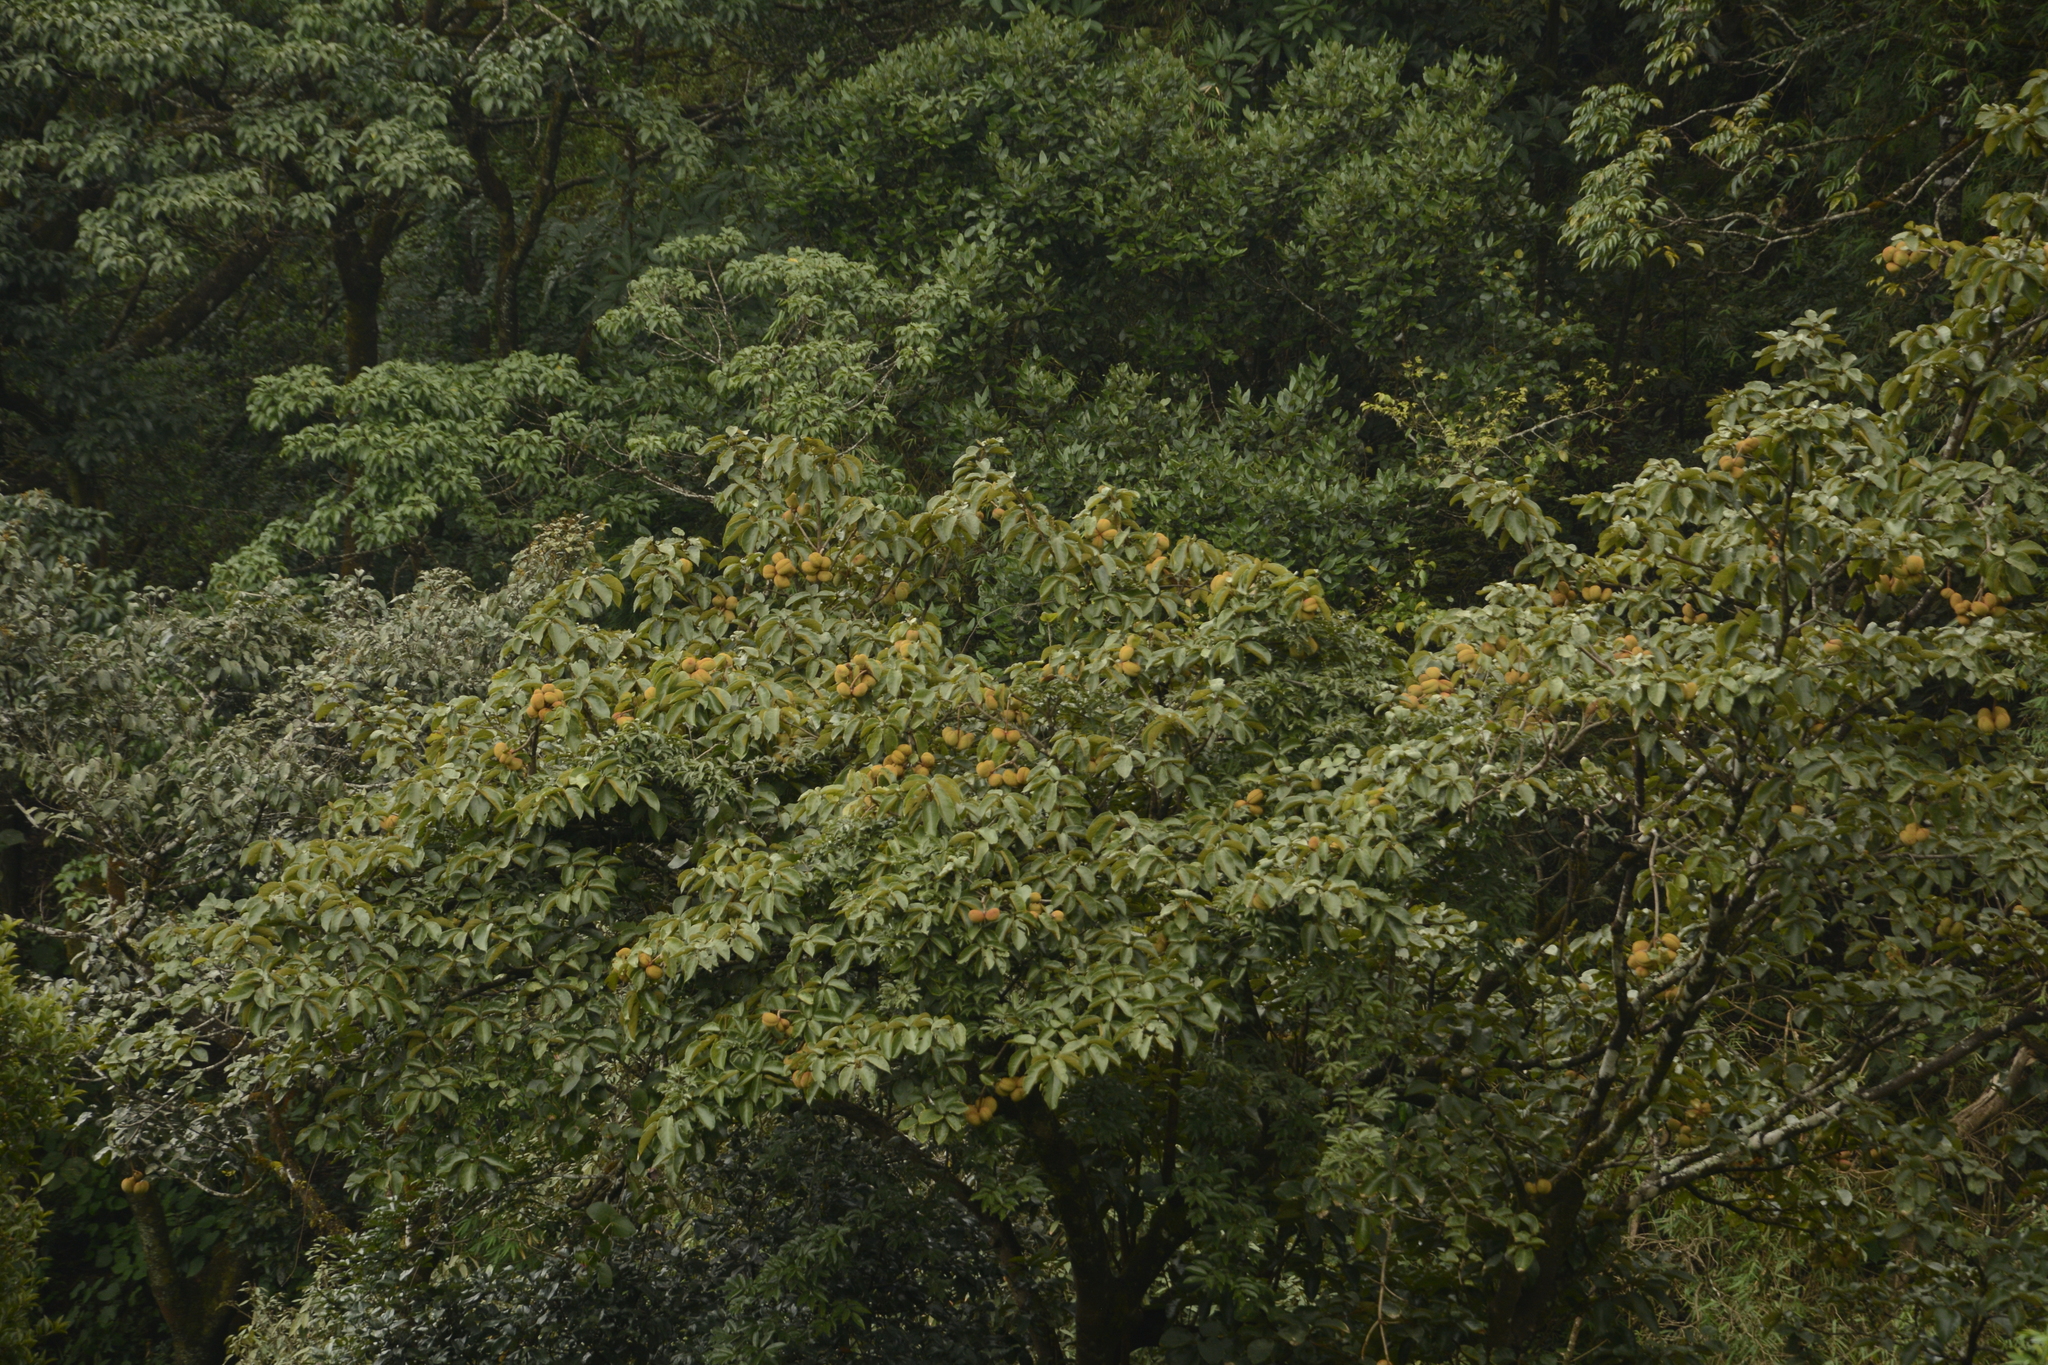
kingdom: Plantae
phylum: Tracheophyta
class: Magnoliopsida
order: Malvales
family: Malvaceae
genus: Sterculia
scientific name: Sterculia guttata
